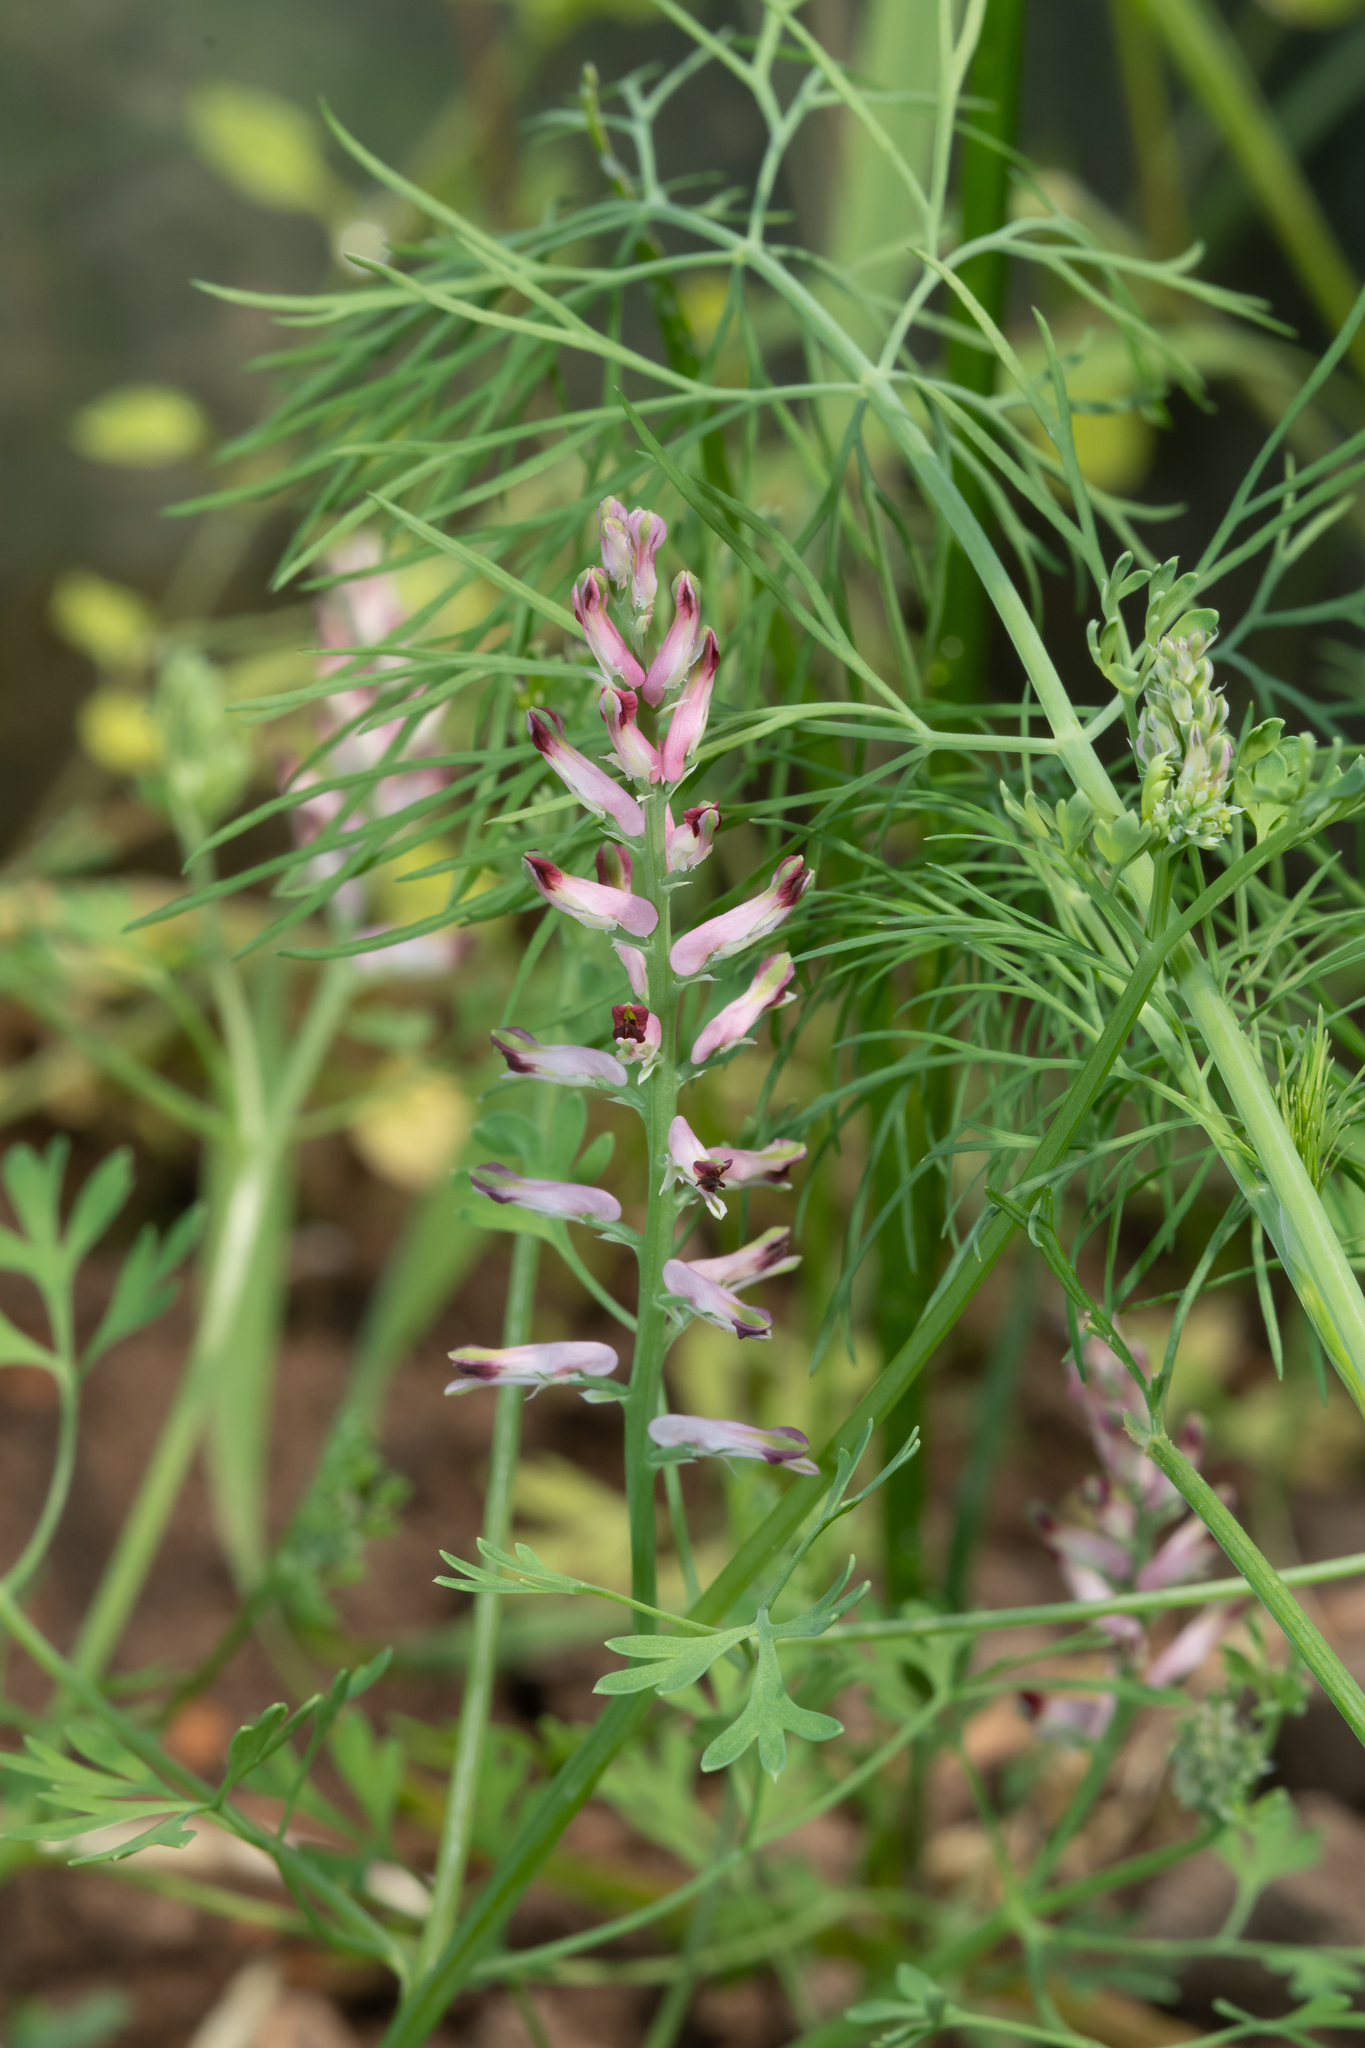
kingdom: Plantae
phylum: Tracheophyta
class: Magnoliopsida
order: Ranunculales
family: Papaveraceae
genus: Fumaria
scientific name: Fumaria officinalis
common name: Common fumitory
